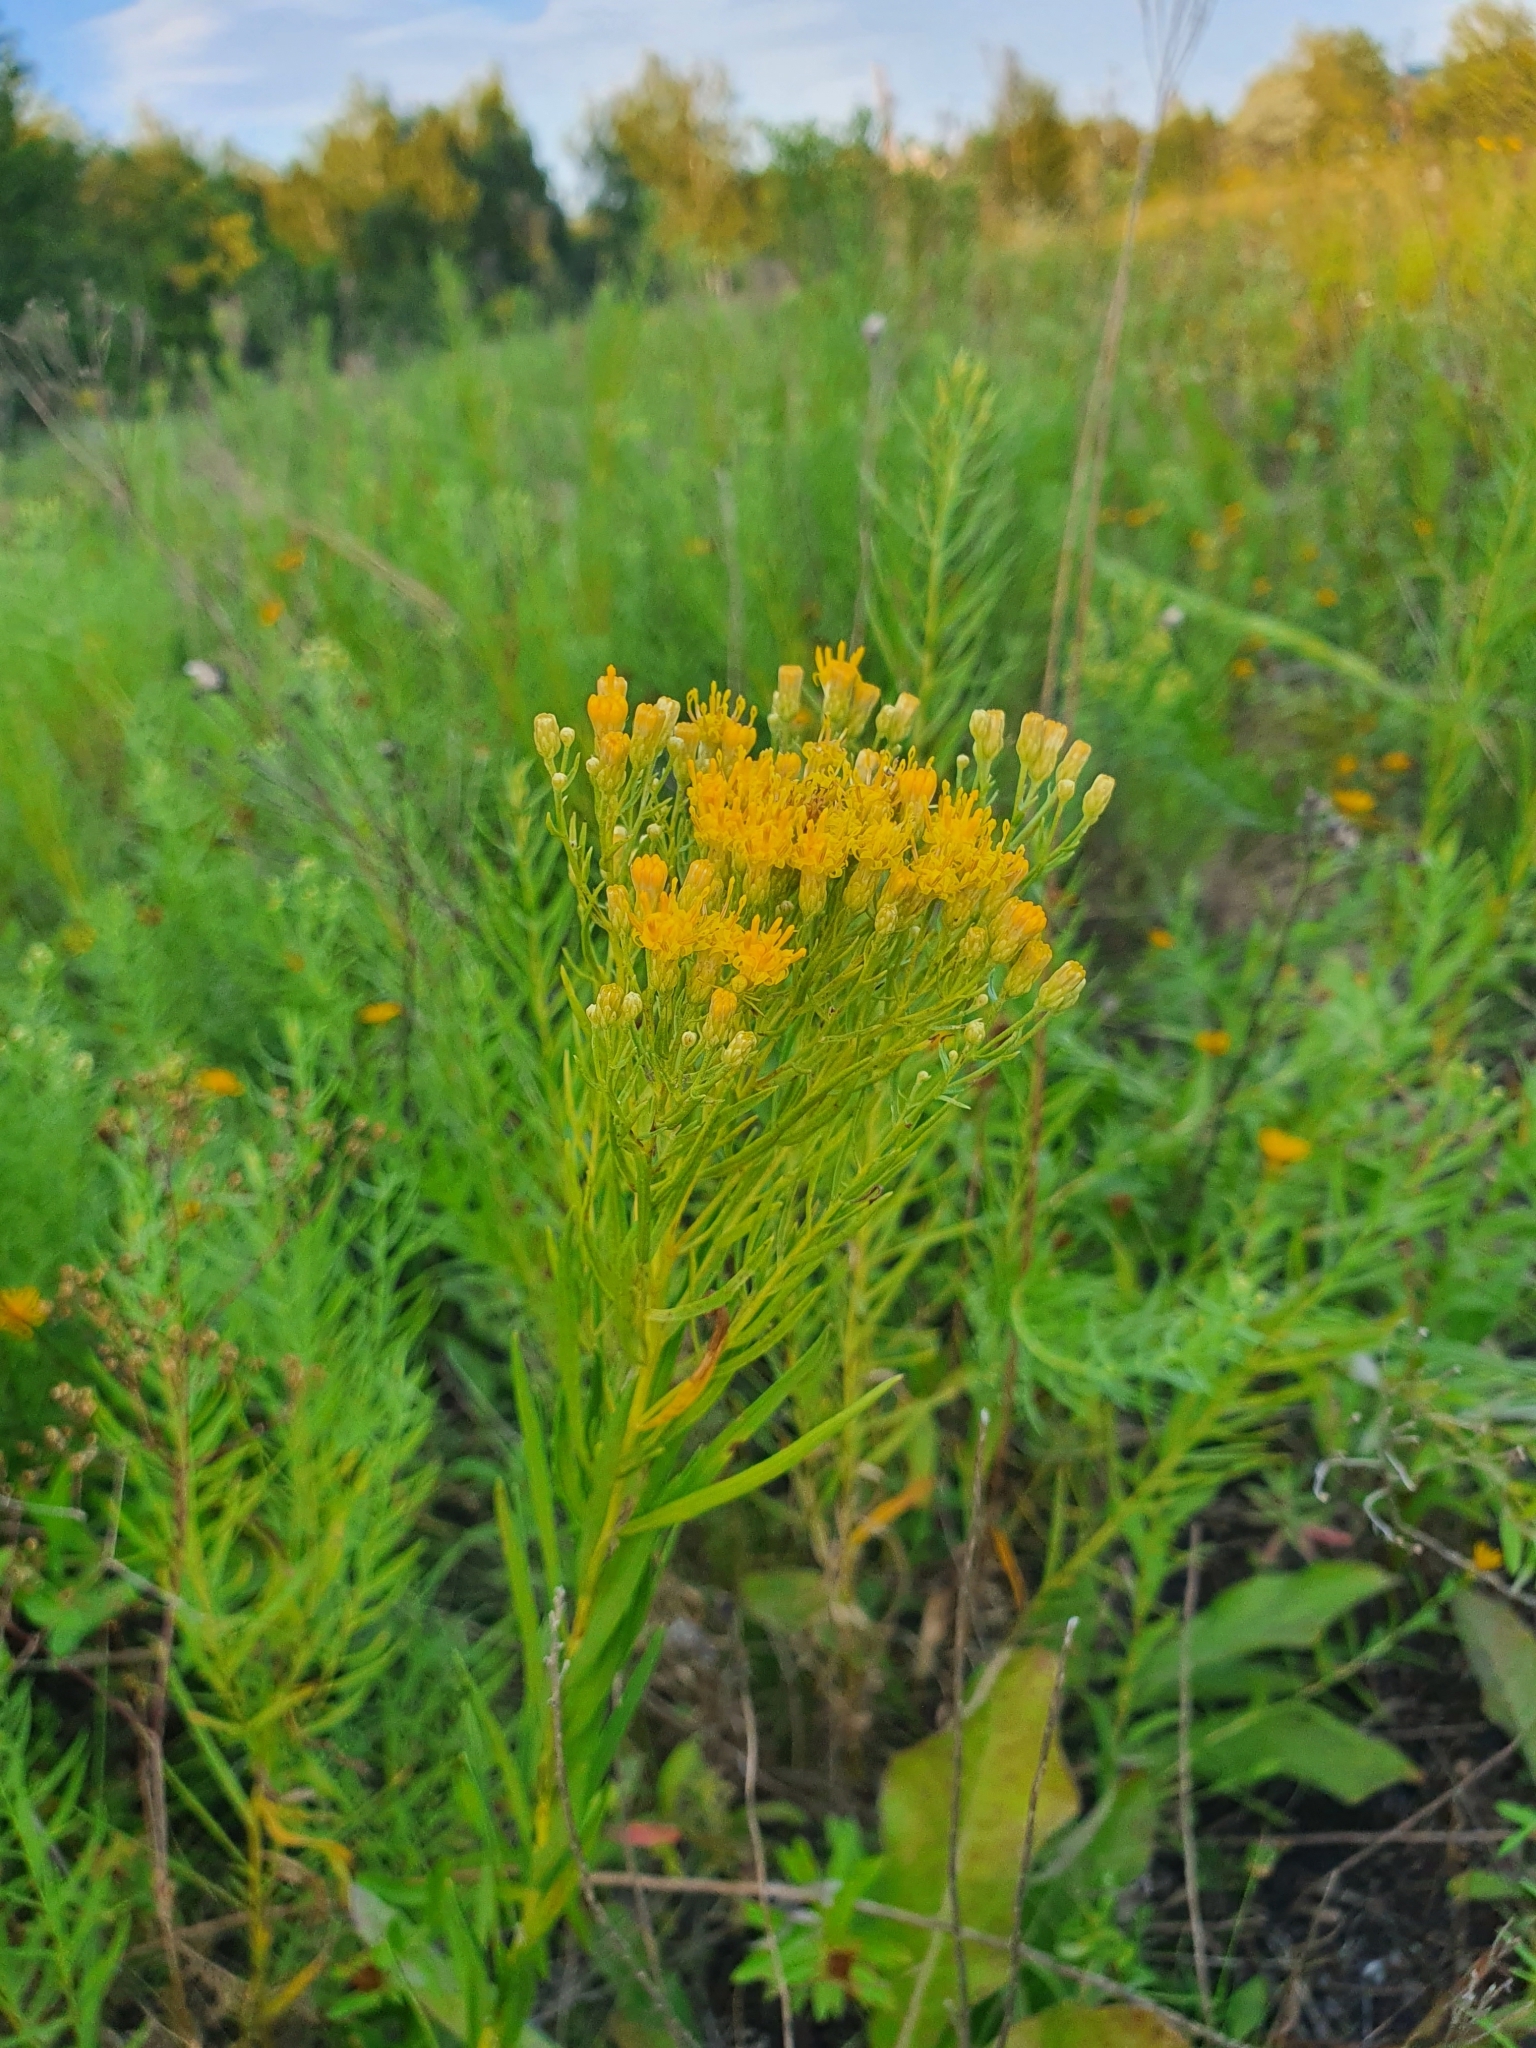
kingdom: Plantae
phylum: Tracheophyta
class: Magnoliopsida
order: Asterales
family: Asteraceae
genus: Galatella
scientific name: Galatella biflora
